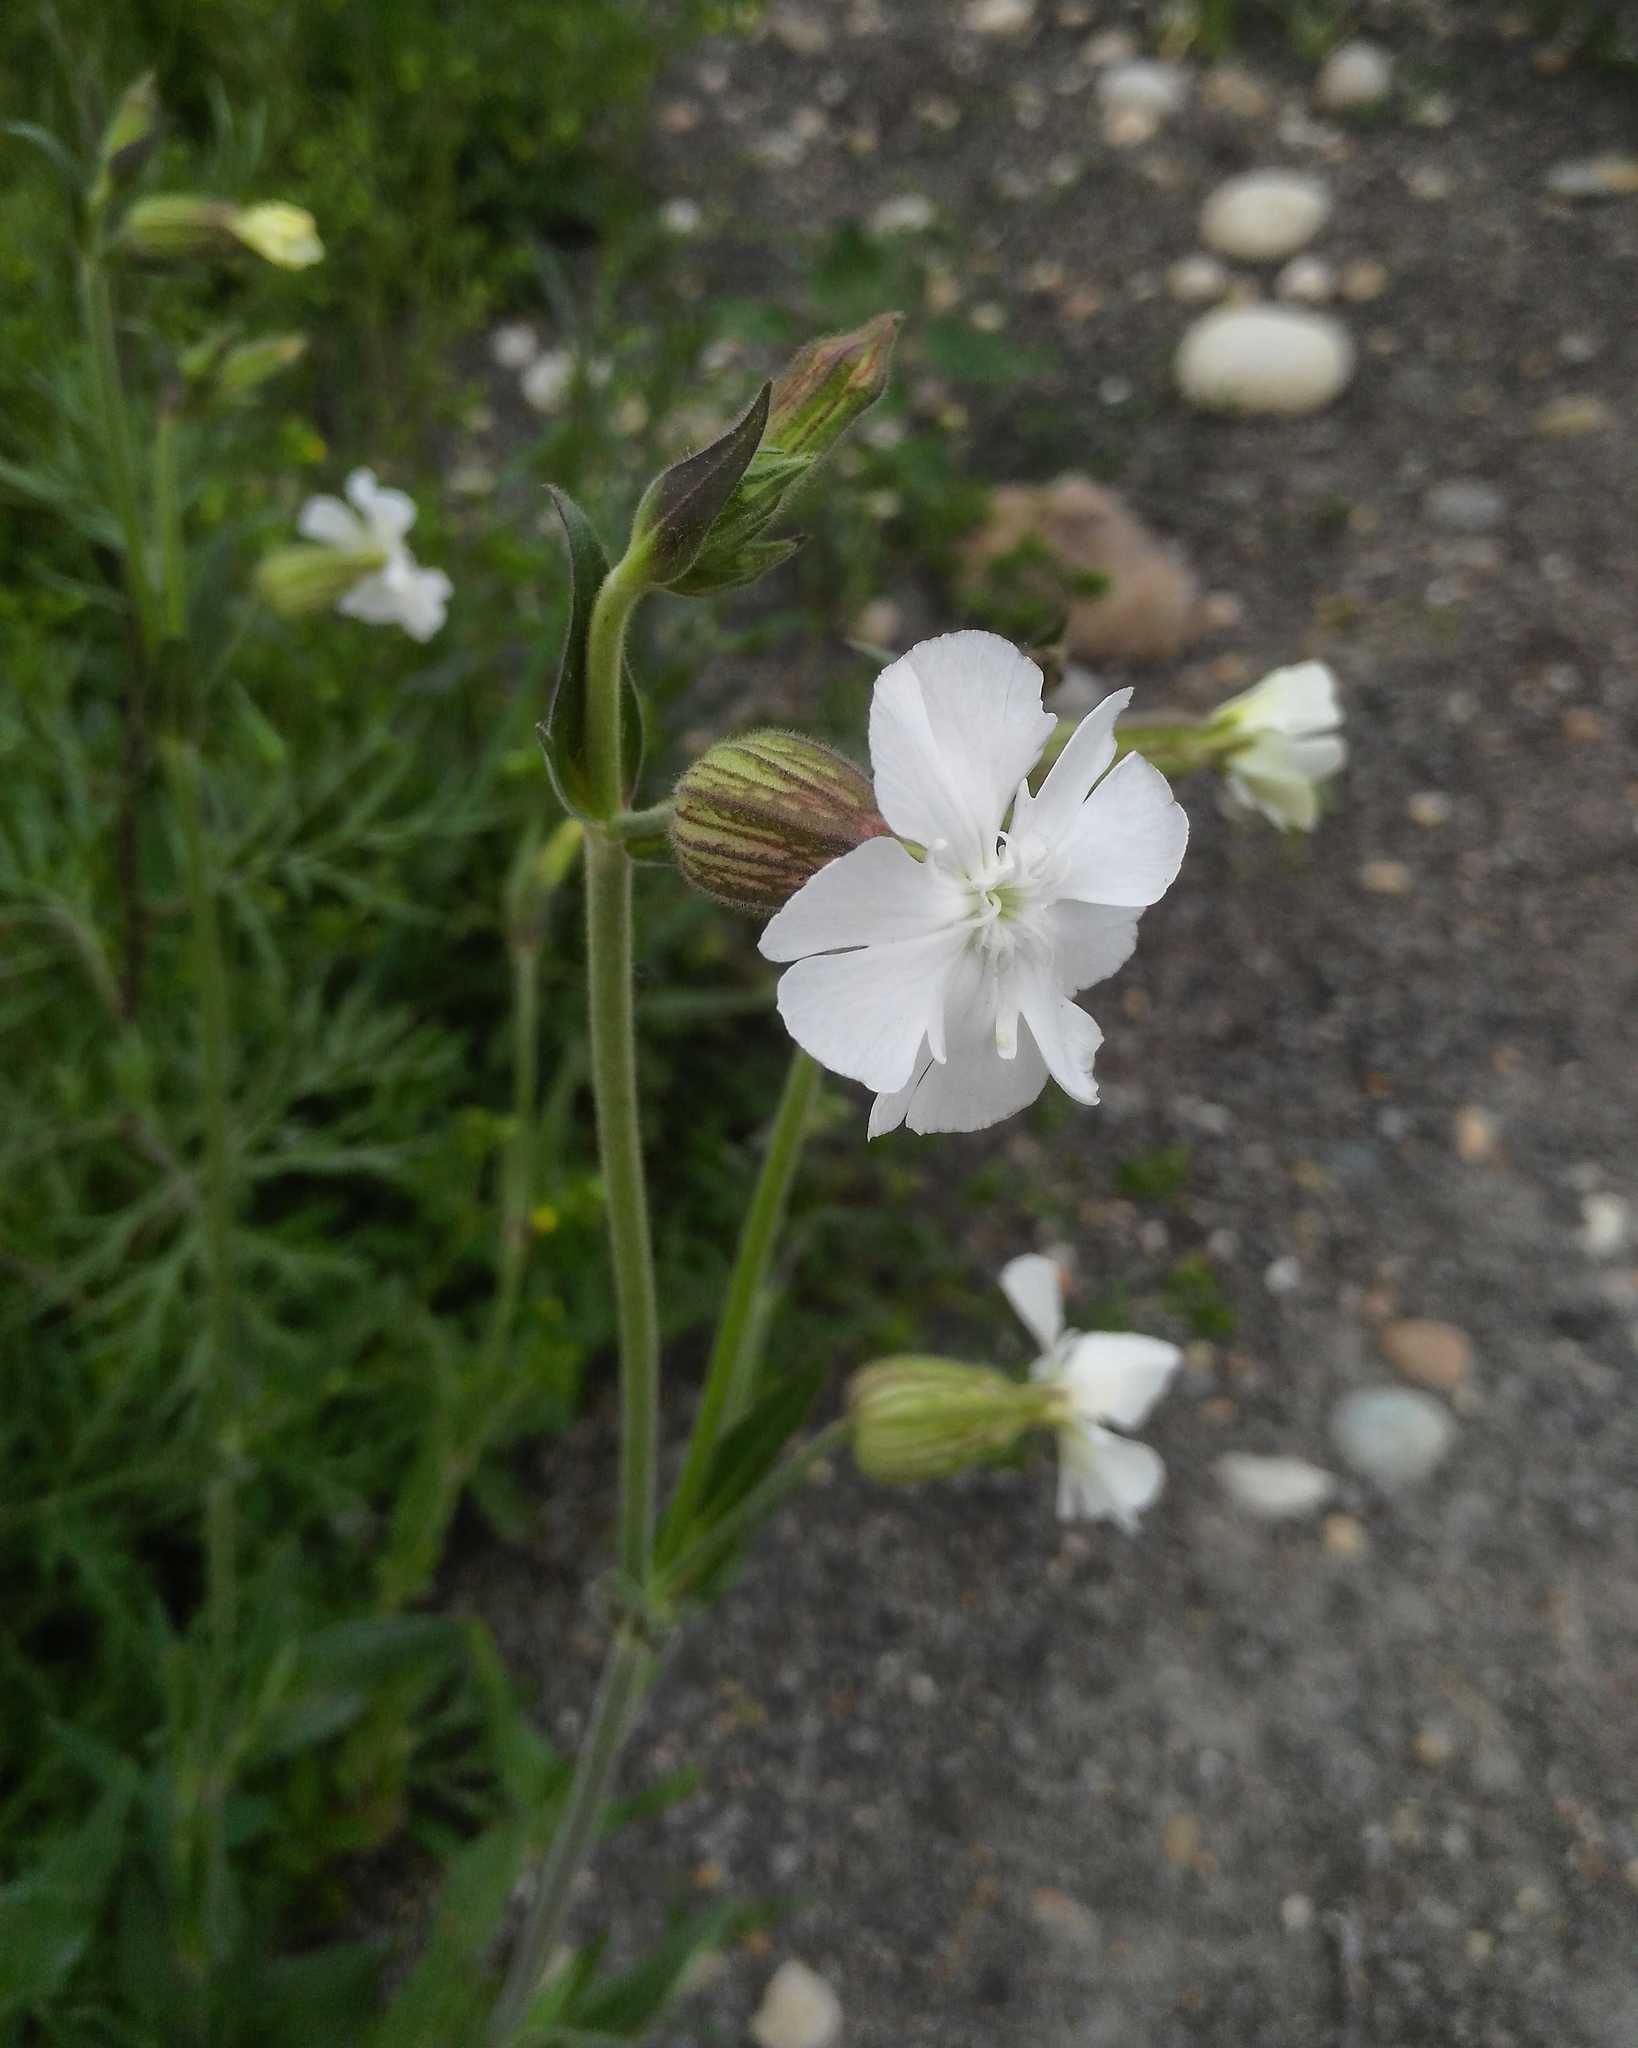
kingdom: Plantae
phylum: Tracheophyta
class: Magnoliopsida
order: Caryophyllales
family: Caryophyllaceae
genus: Silene
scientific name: Silene latifolia
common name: White campion
